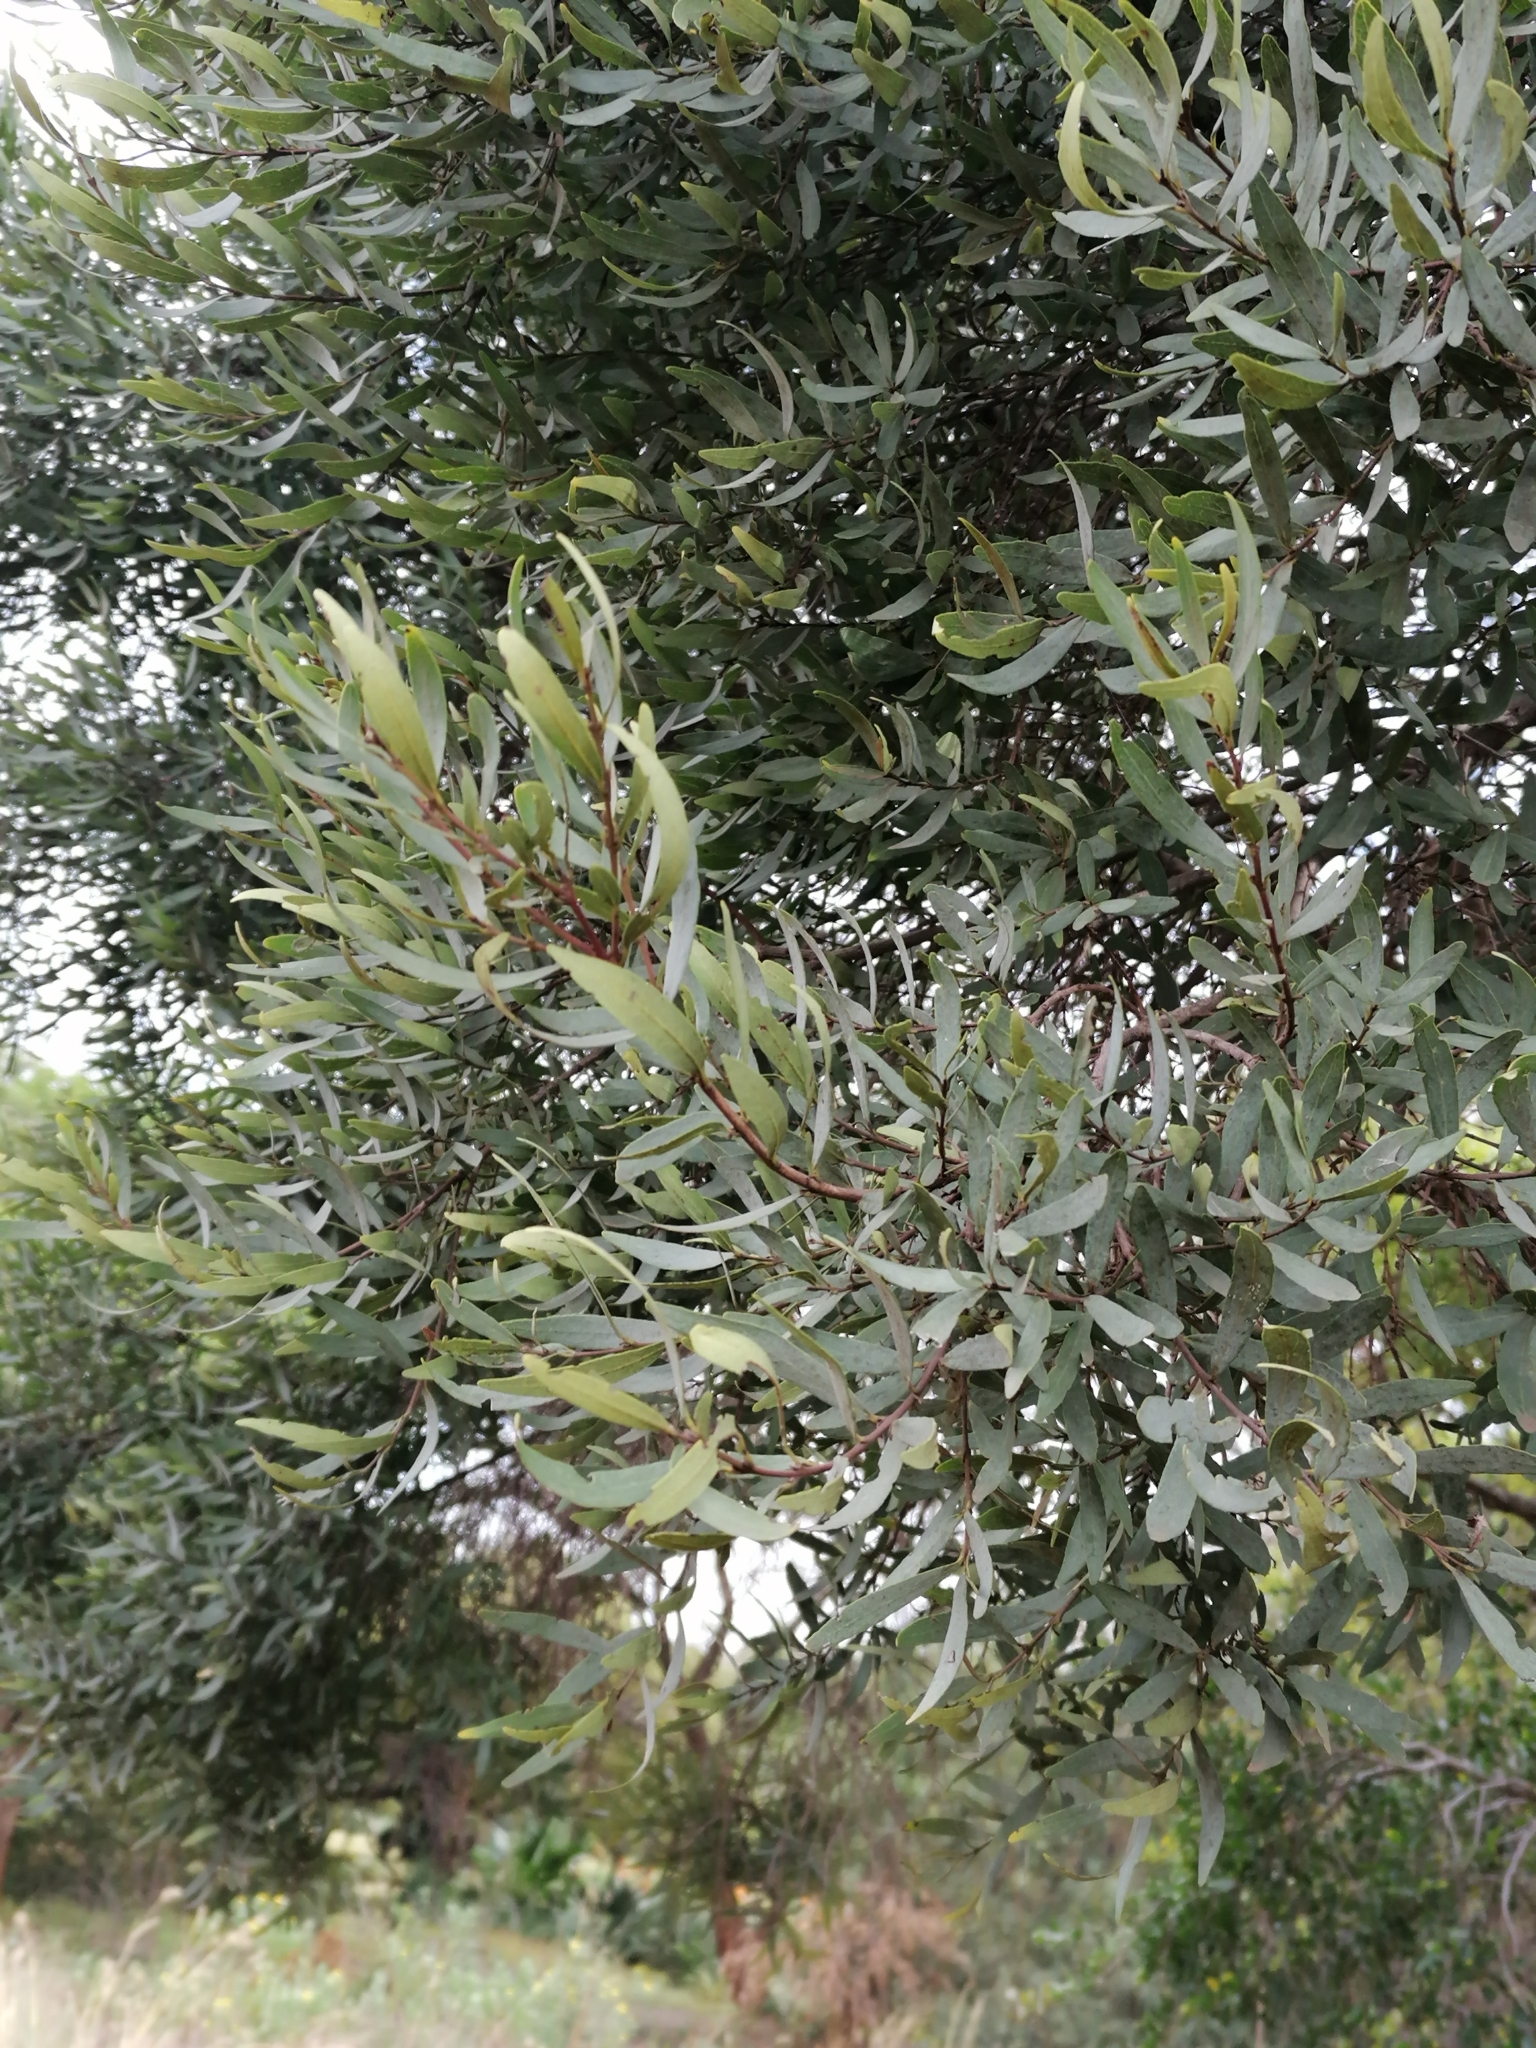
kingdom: Plantae
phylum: Tracheophyta
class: Magnoliopsida
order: Ericales
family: Ebenaceae
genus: Euclea
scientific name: Euclea crispa
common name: Blue guarri
